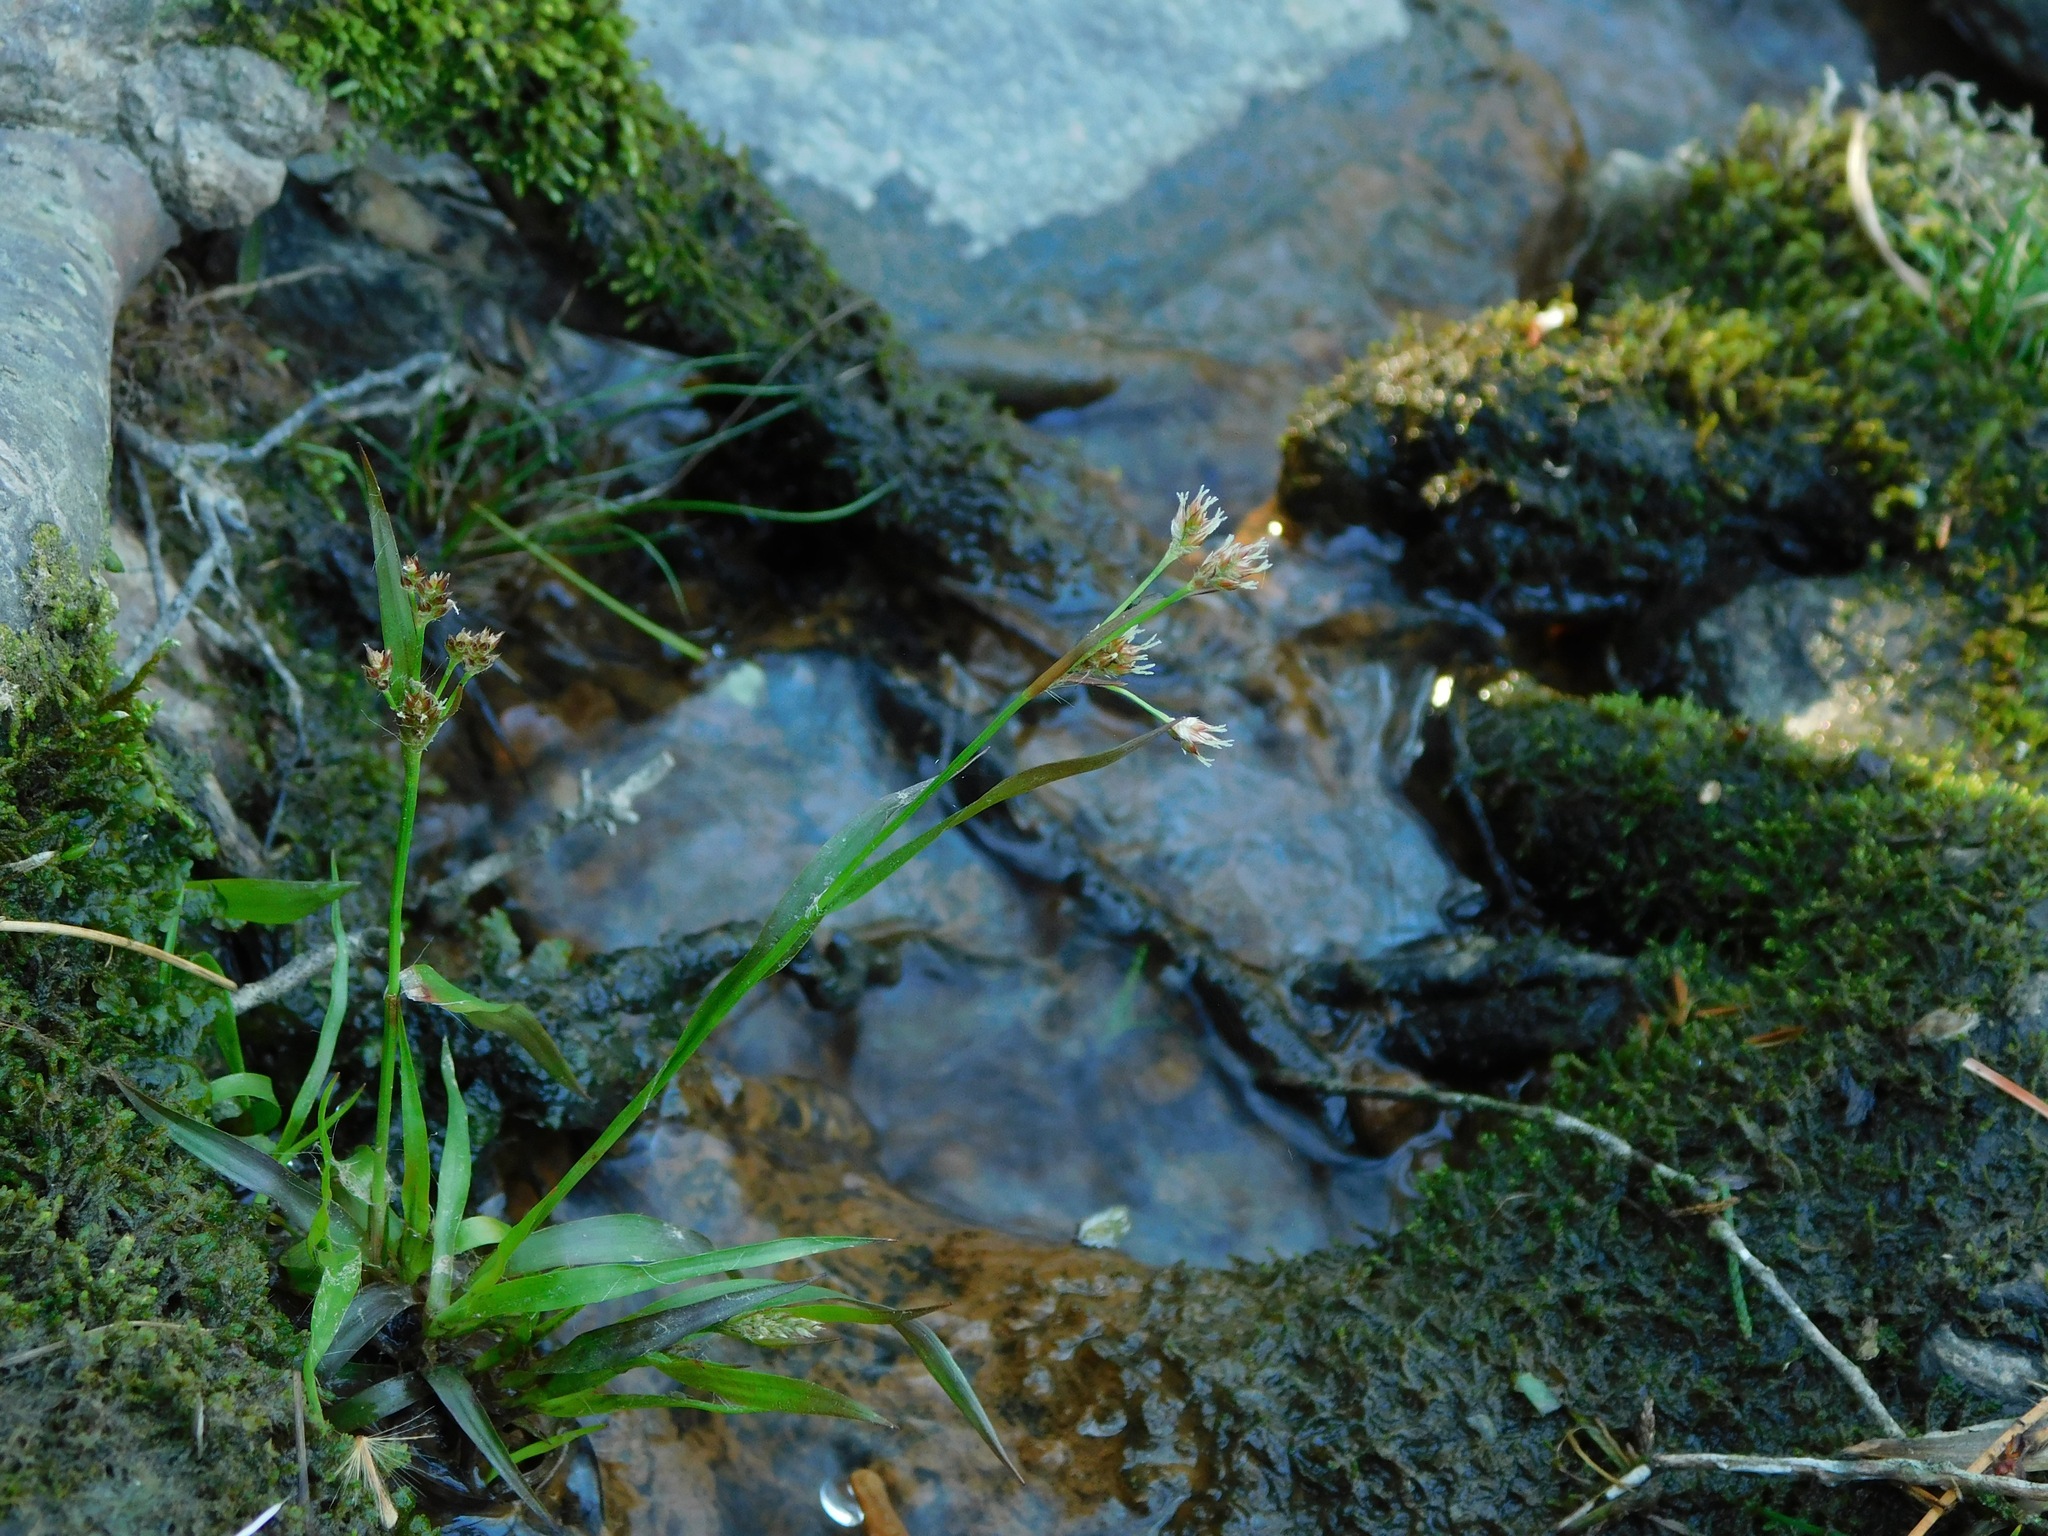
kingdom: Plantae
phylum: Tracheophyta
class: Liliopsida
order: Poales
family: Juncaceae
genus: Luzula
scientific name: Luzula echinata
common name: Hedgehog woodrush
